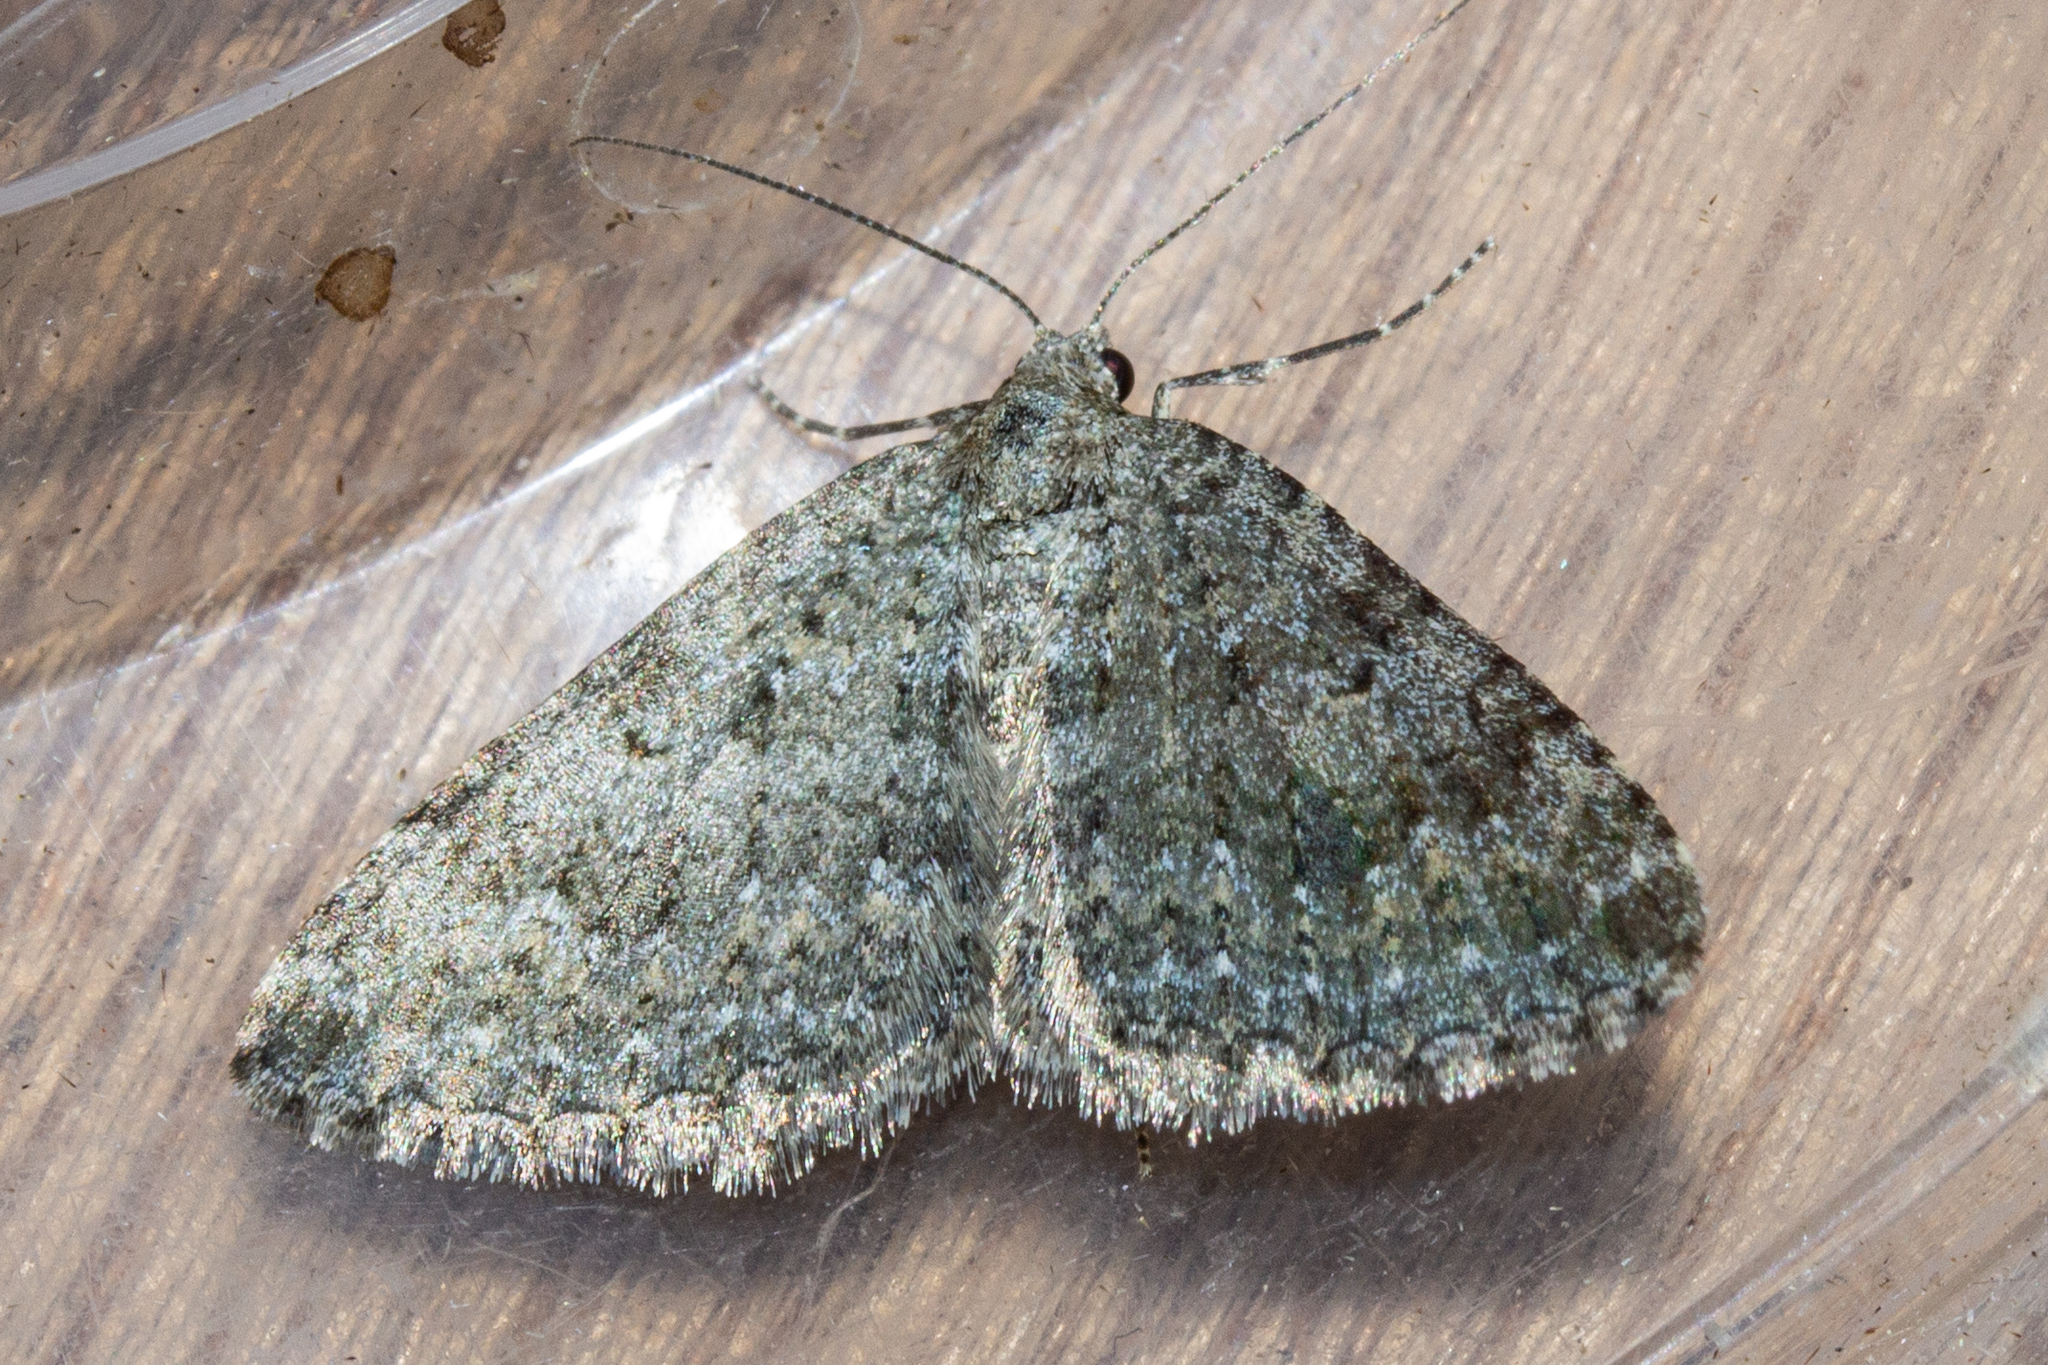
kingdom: Animalia
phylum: Arthropoda
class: Insecta
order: Lepidoptera
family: Geometridae
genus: Helastia
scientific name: Helastia corcularia
